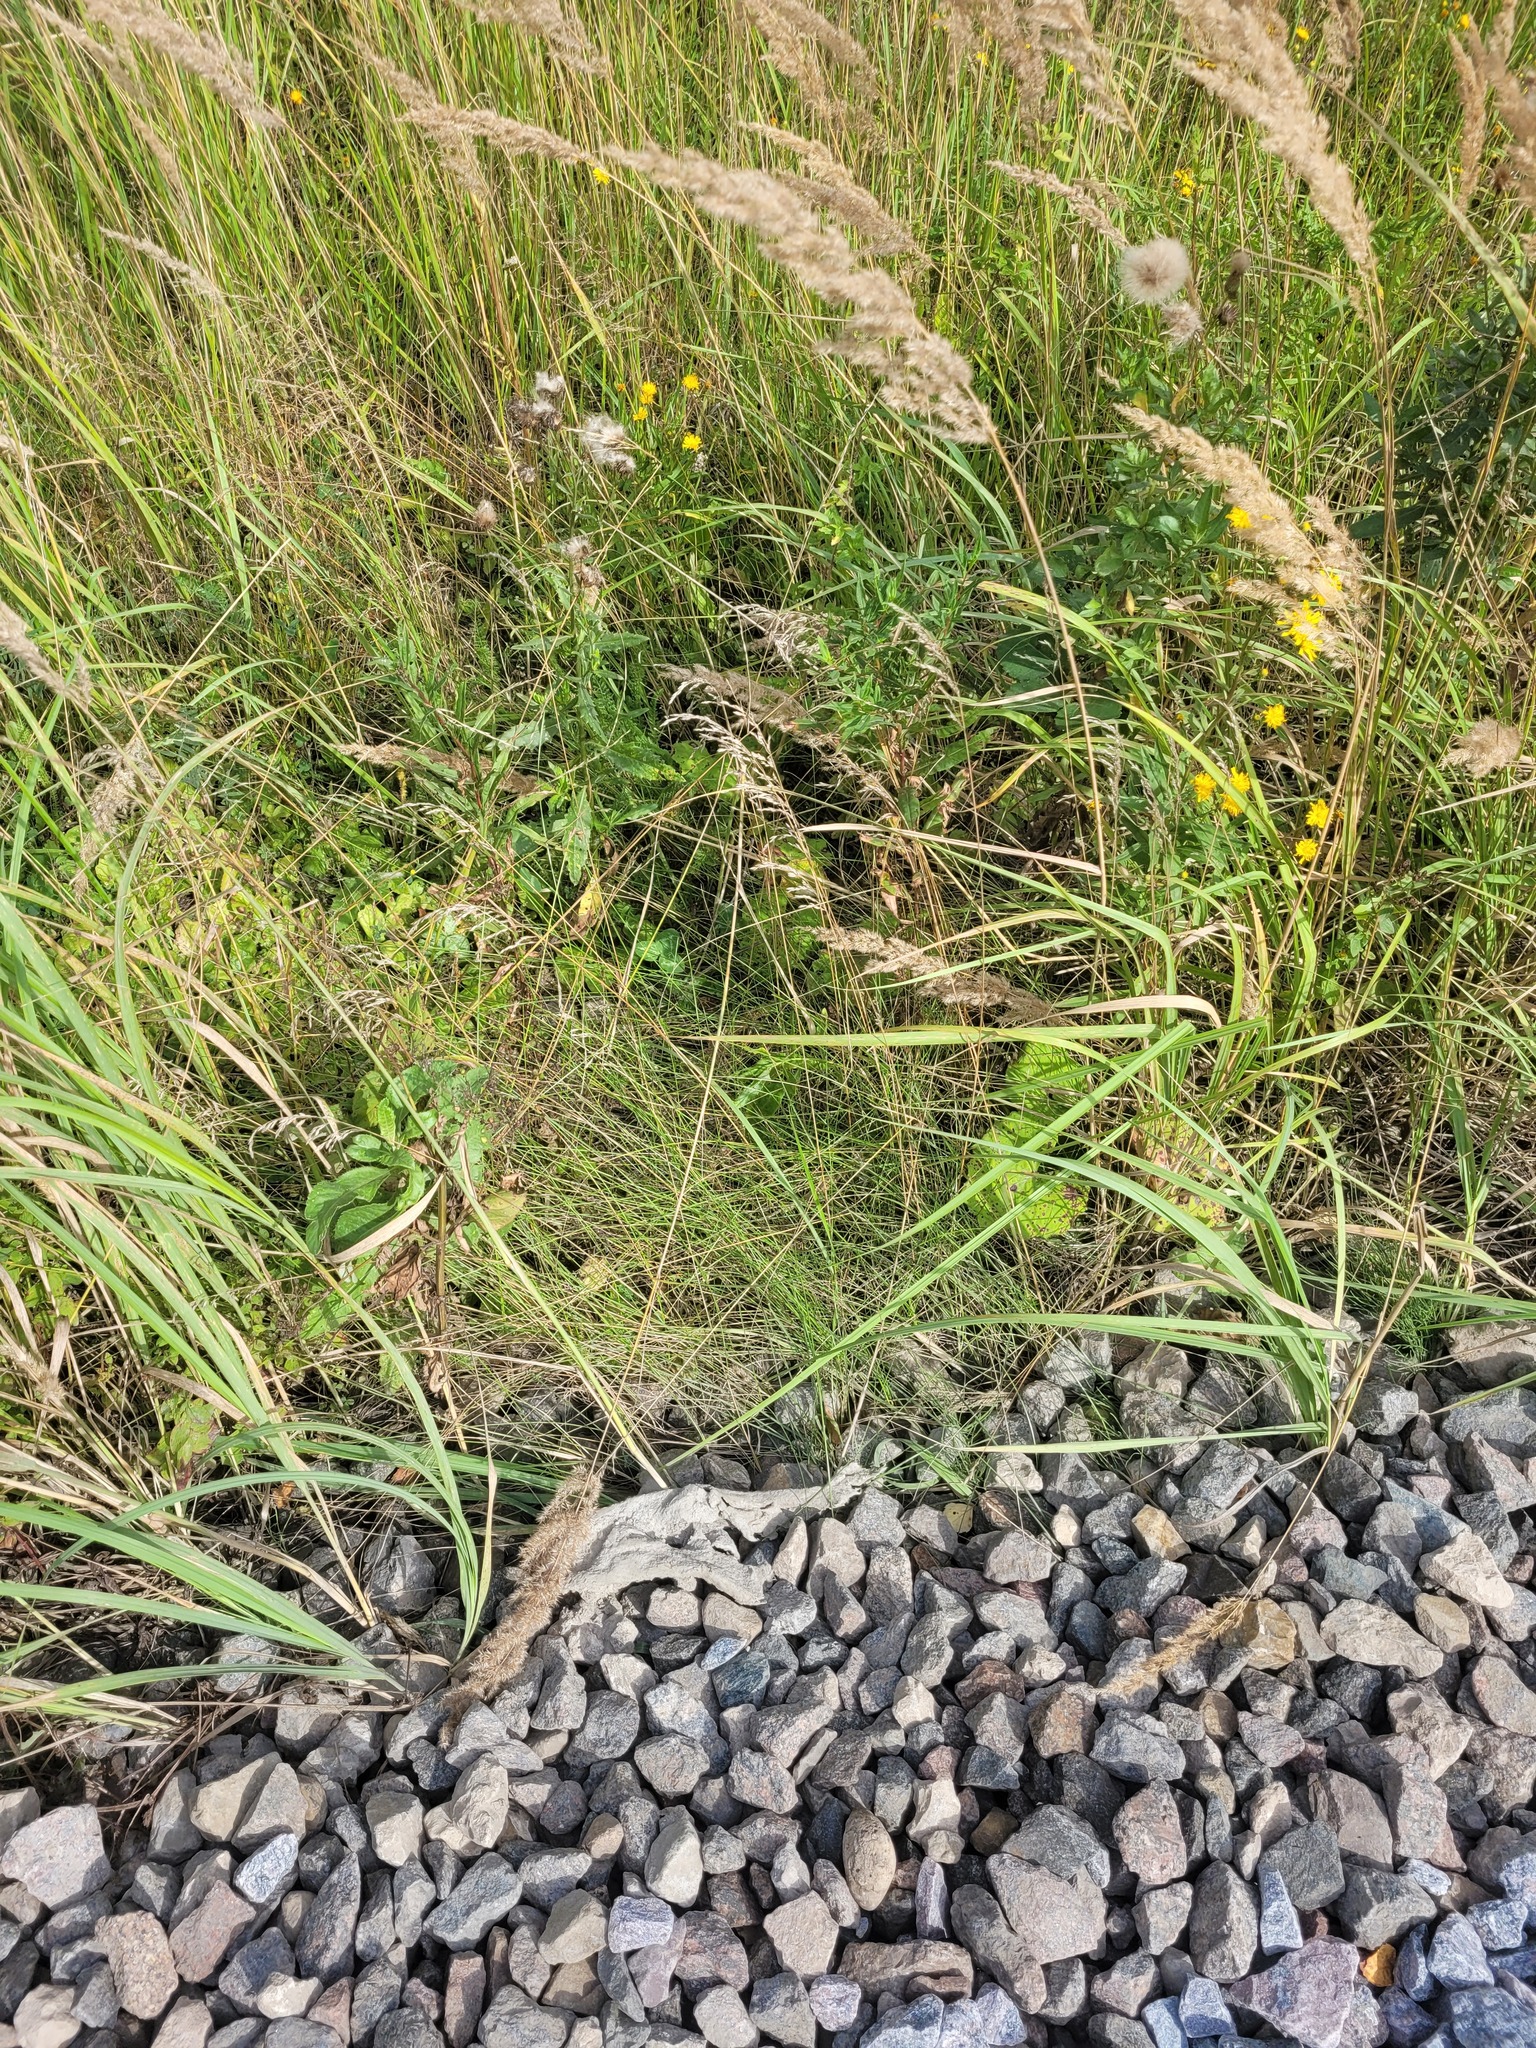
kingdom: Plantae
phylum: Tracheophyta
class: Liliopsida
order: Poales
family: Poaceae
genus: Poa
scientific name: Poa angustifolia
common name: Narrow-leaved meadow-grass
